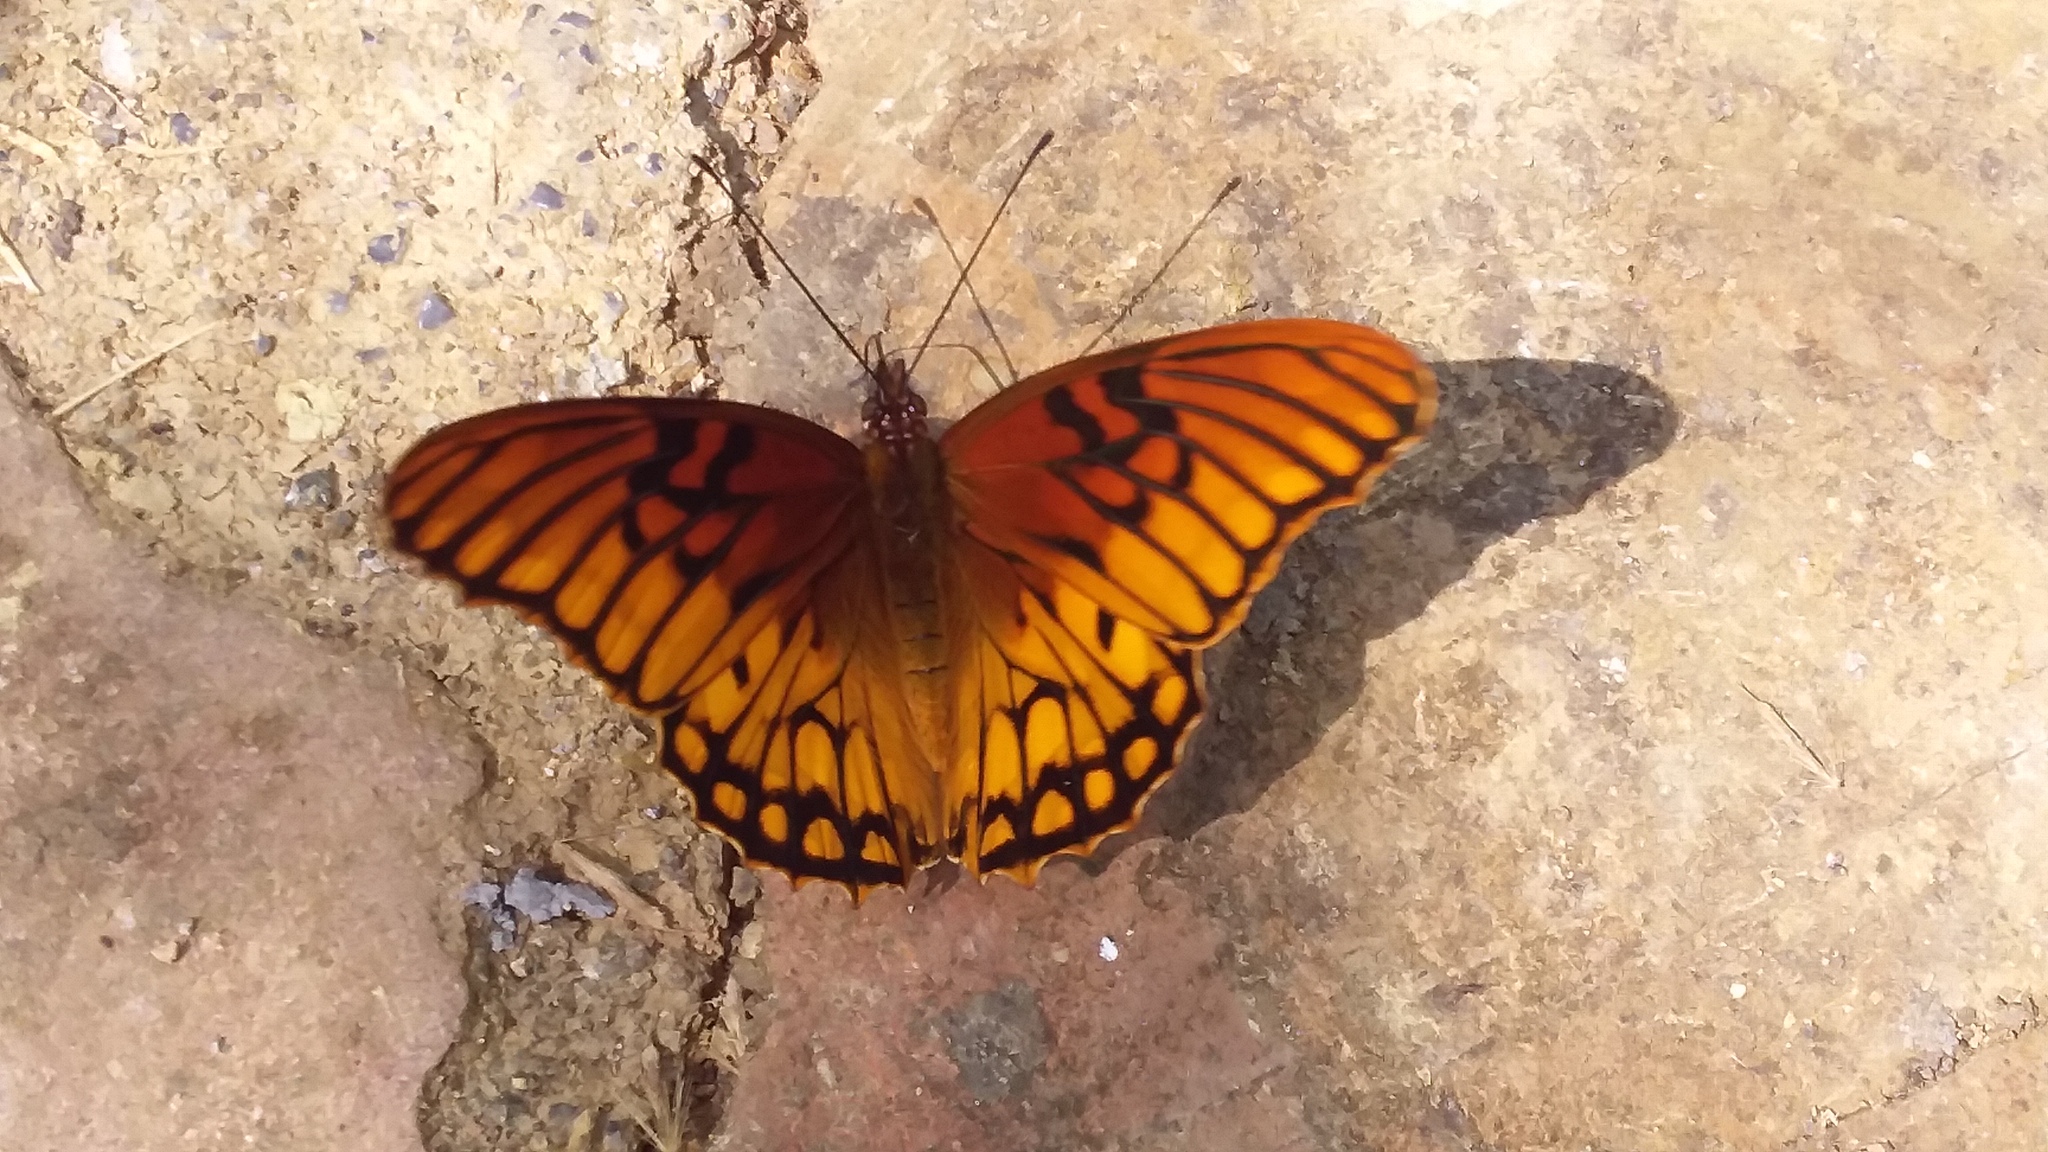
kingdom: Animalia
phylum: Arthropoda
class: Insecta
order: Lepidoptera
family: Nymphalidae
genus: Dione
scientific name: Dione moneta
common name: Mexican silverspot
